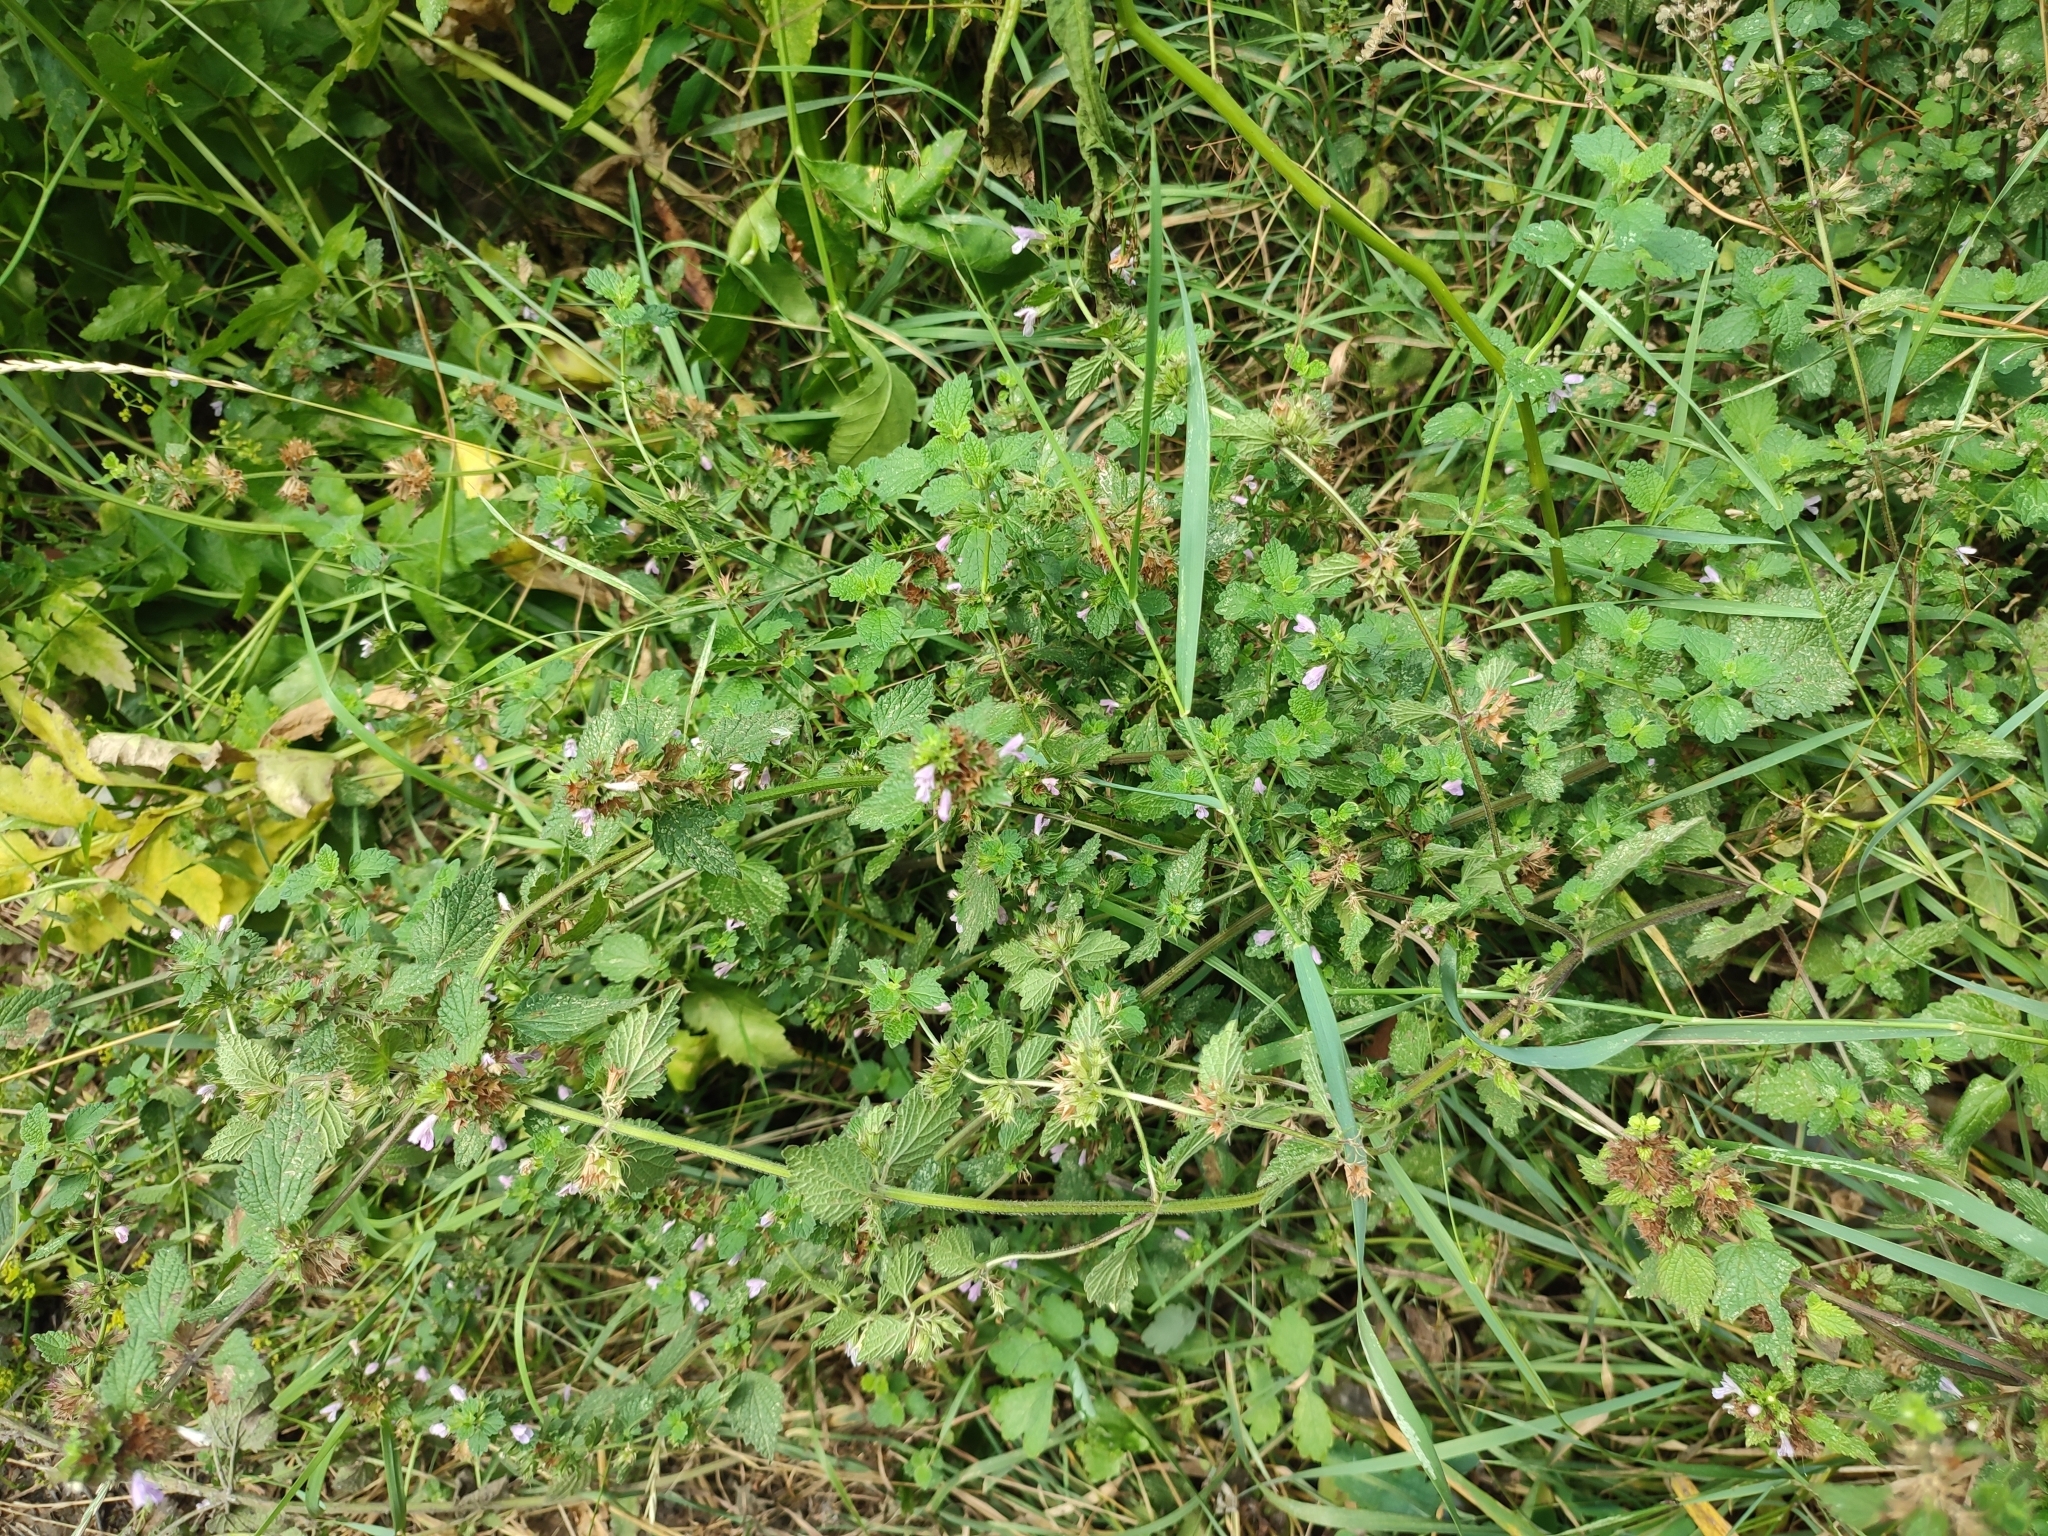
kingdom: Plantae
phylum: Tracheophyta
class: Magnoliopsida
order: Lamiales
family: Lamiaceae
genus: Ballota
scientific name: Ballota nigra
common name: Black horehound
